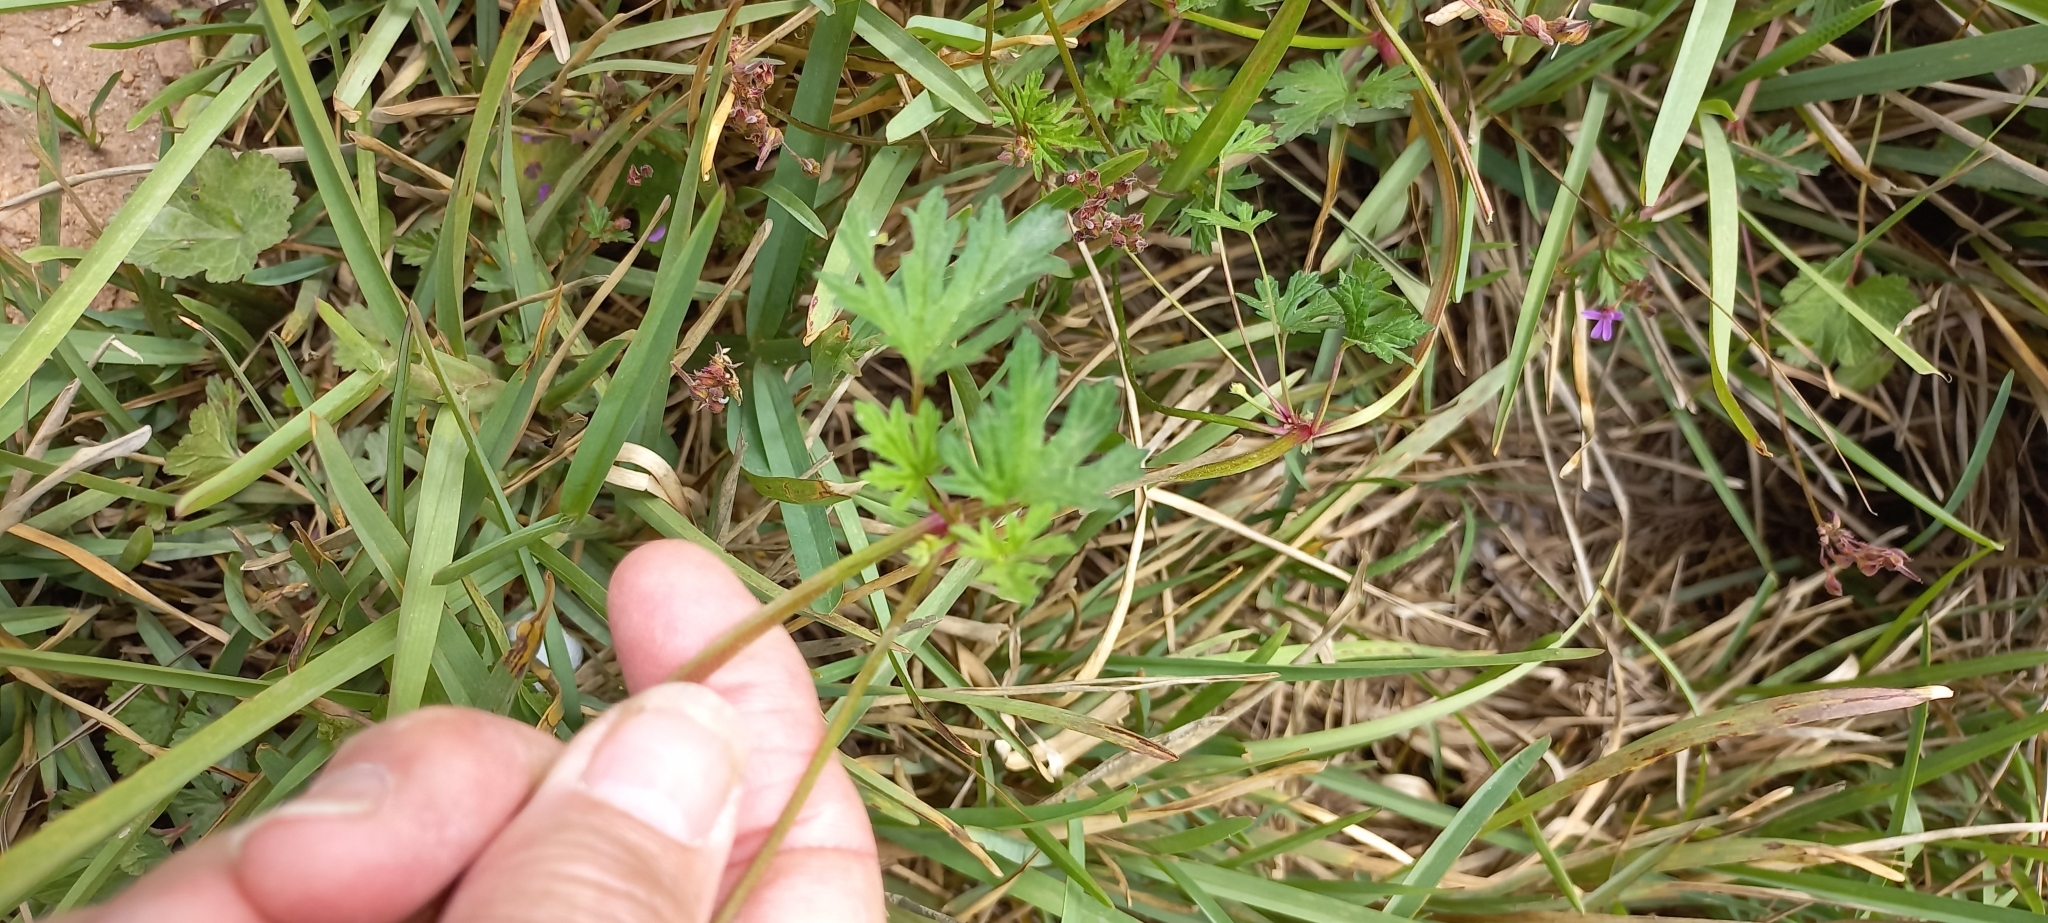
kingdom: Plantae
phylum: Tracheophyta
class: Magnoliopsida
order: Geraniales
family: Geraniaceae
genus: Pelargonium
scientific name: Pelargonium grossularioides
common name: Gooseberry geranium
